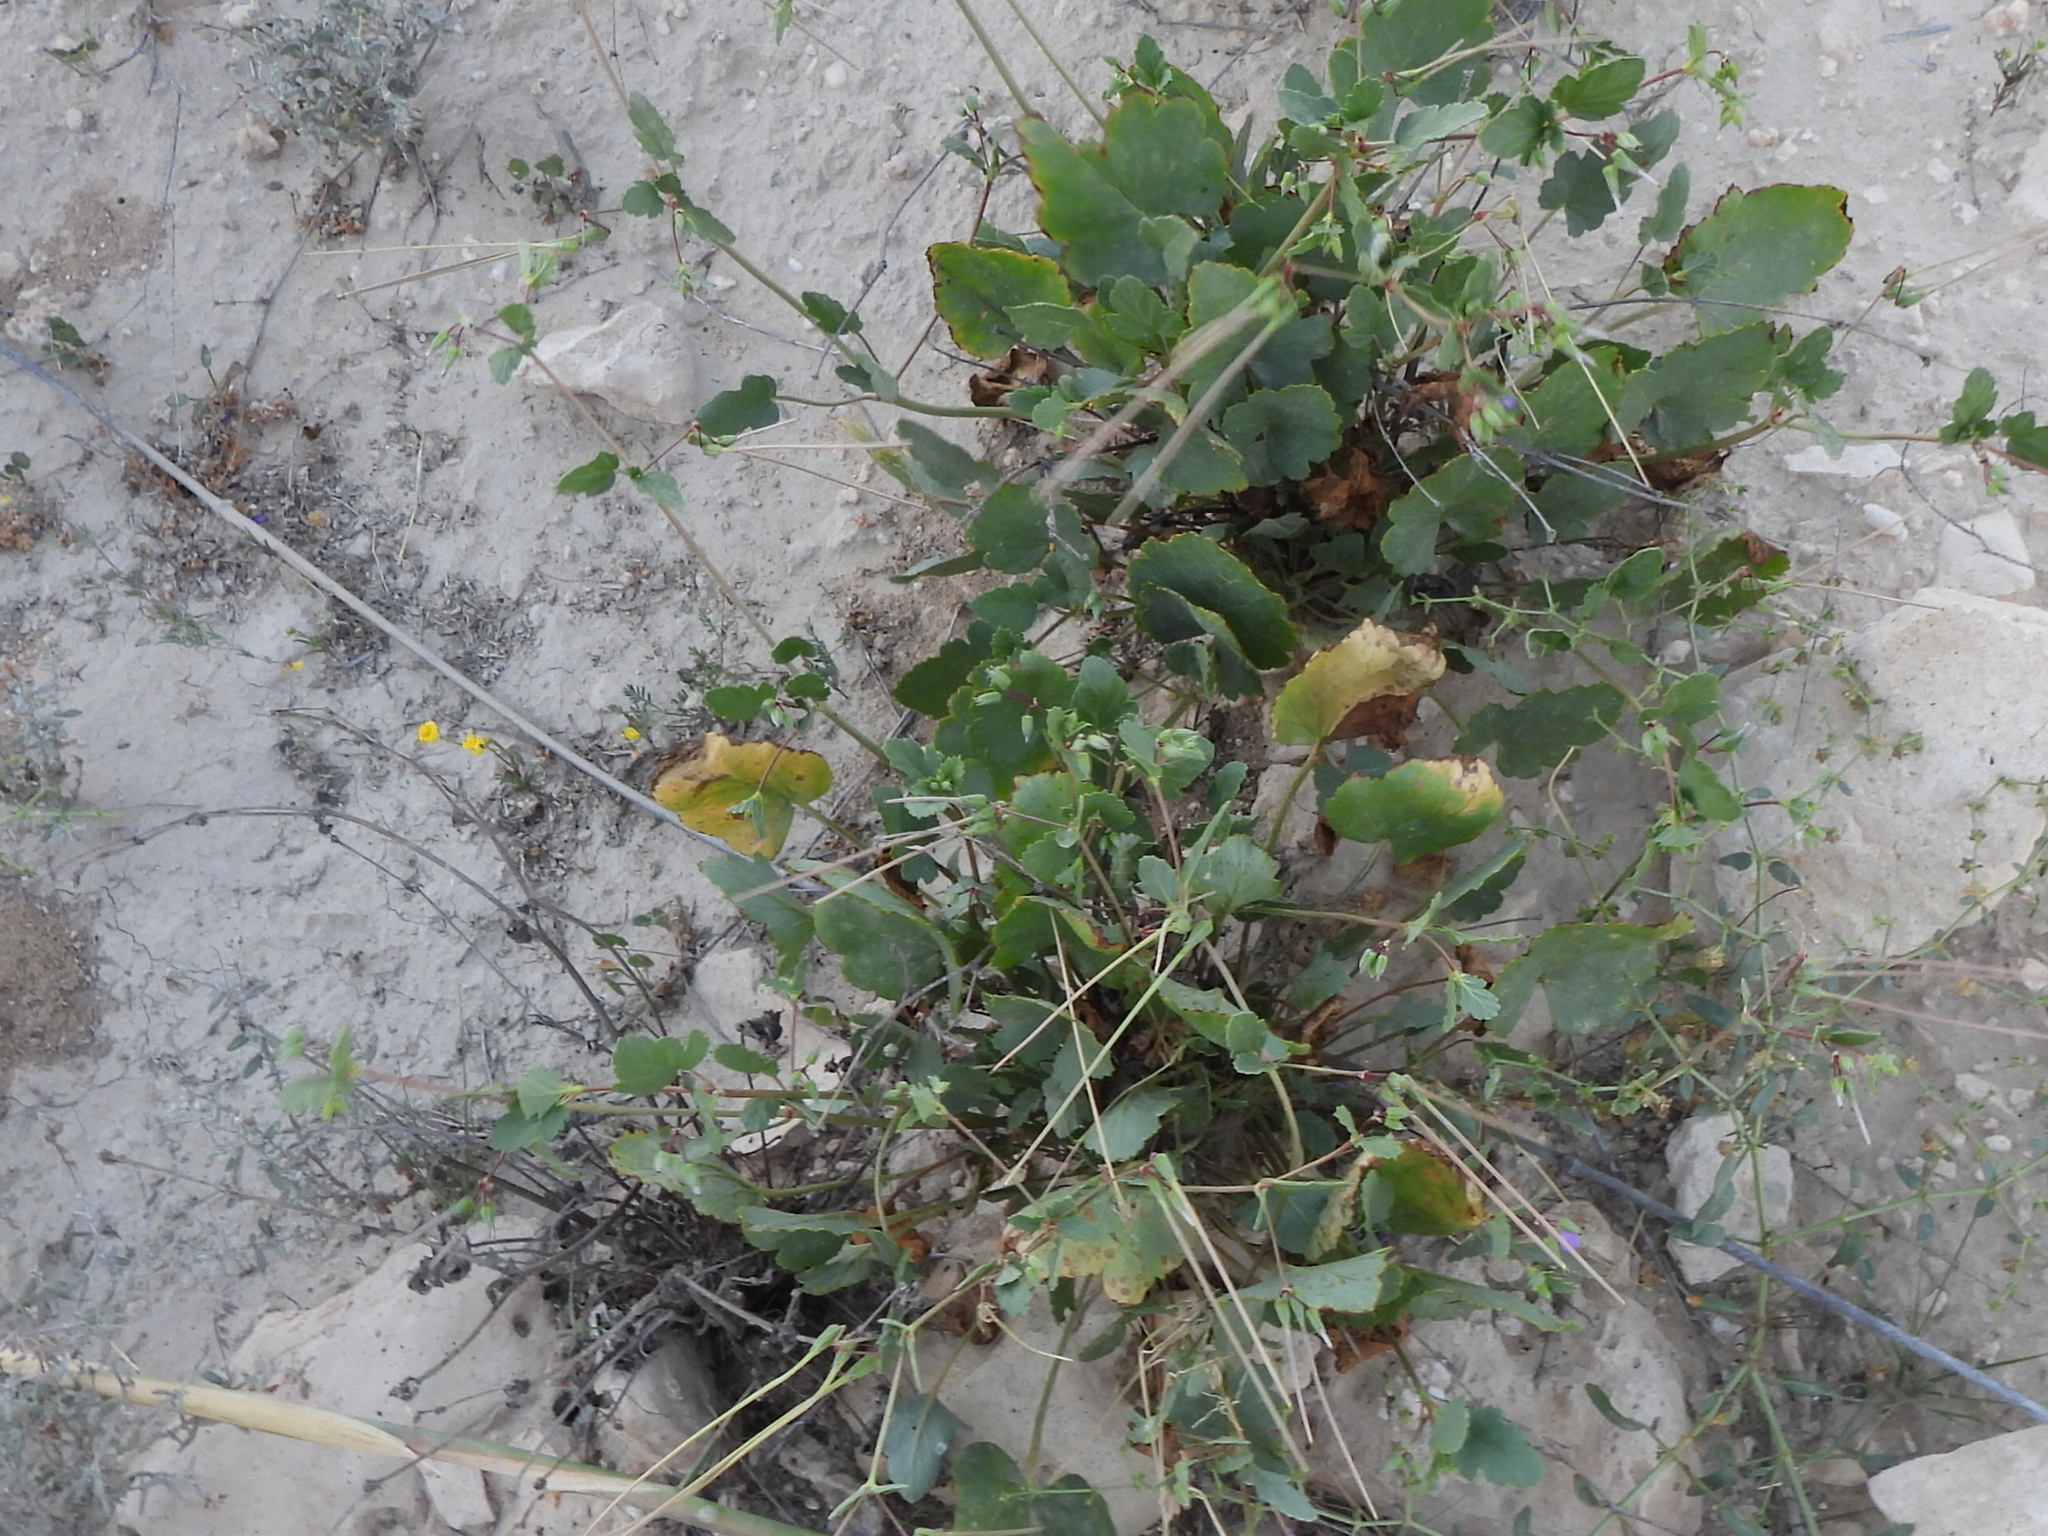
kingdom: Plantae
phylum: Tracheophyta
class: Magnoliopsida
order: Geraniales
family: Geraniaceae
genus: Erodium
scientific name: Erodium glaucophyllum
